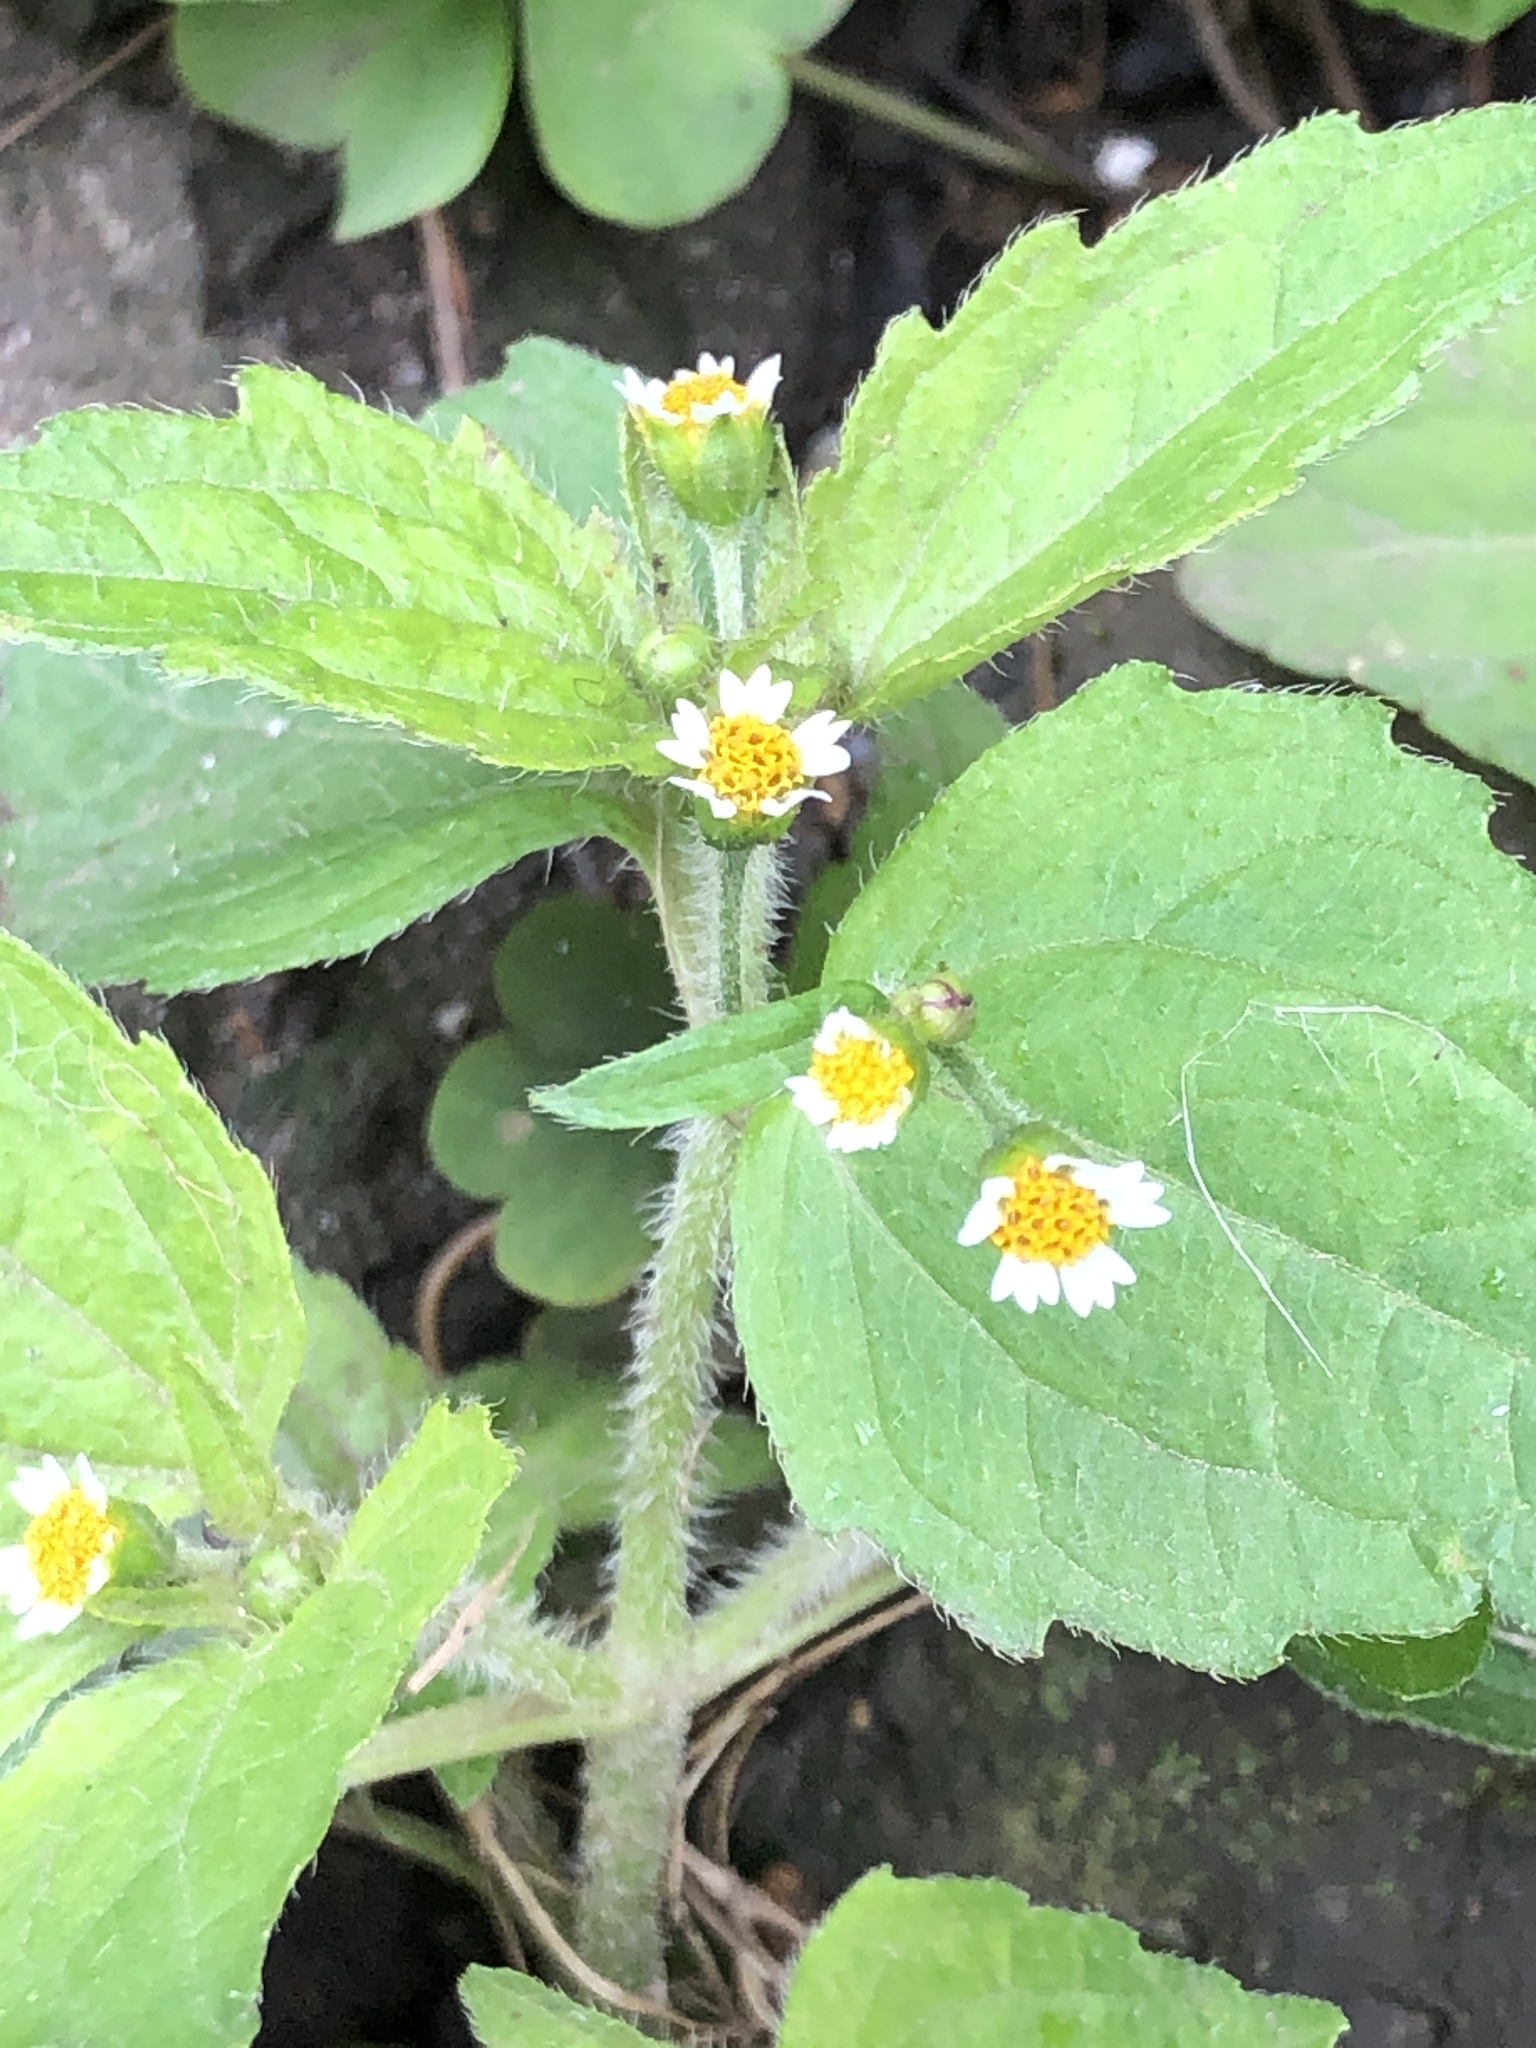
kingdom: Plantae
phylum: Tracheophyta
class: Magnoliopsida
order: Asterales
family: Asteraceae
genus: Galinsoga
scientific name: Galinsoga quadriradiata
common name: Shaggy soldier
